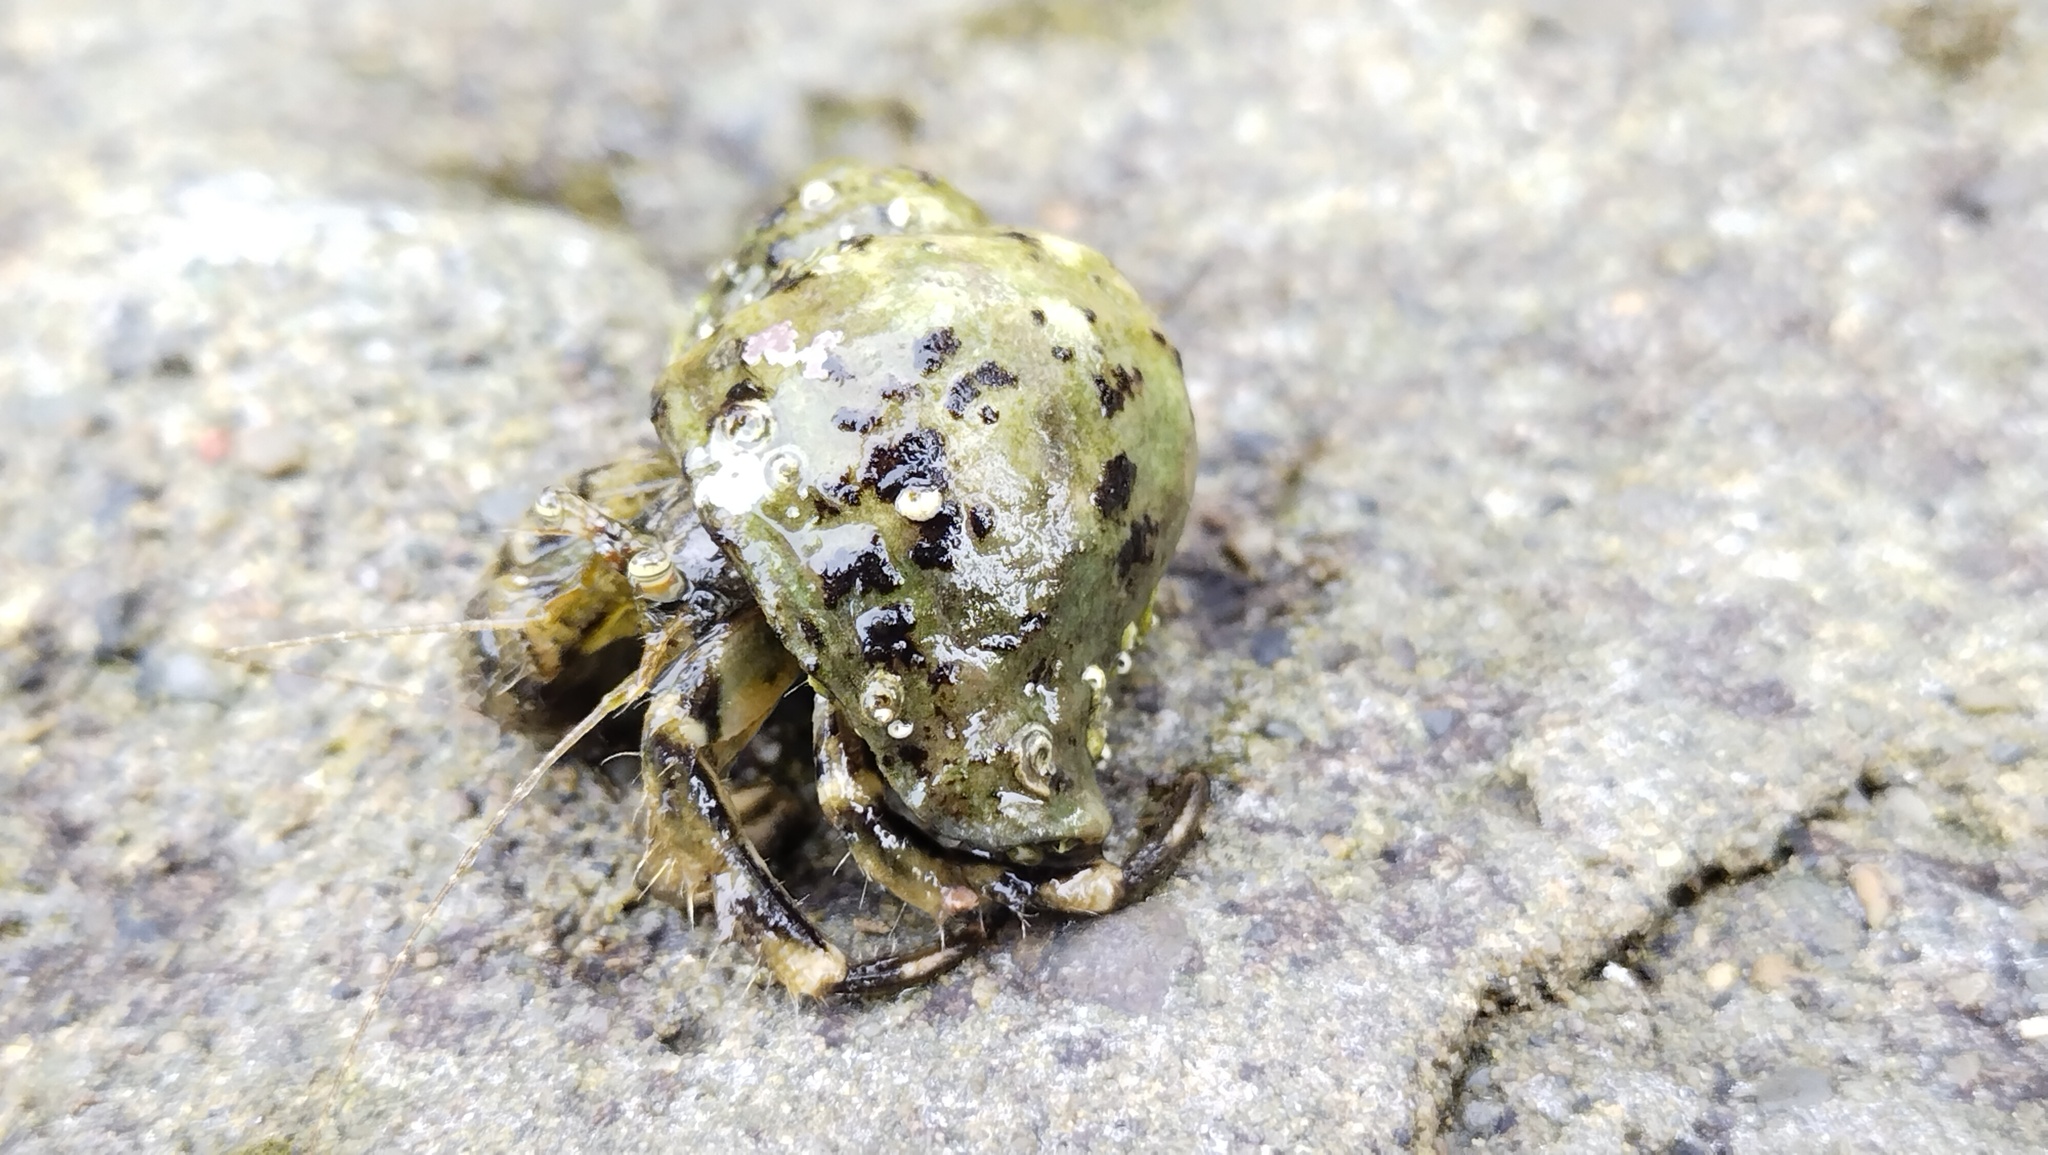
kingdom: Animalia
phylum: Arthropoda
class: Malacostraca
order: Decapoda
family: Paguridae
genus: Pagurus
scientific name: Pagurus minutus
